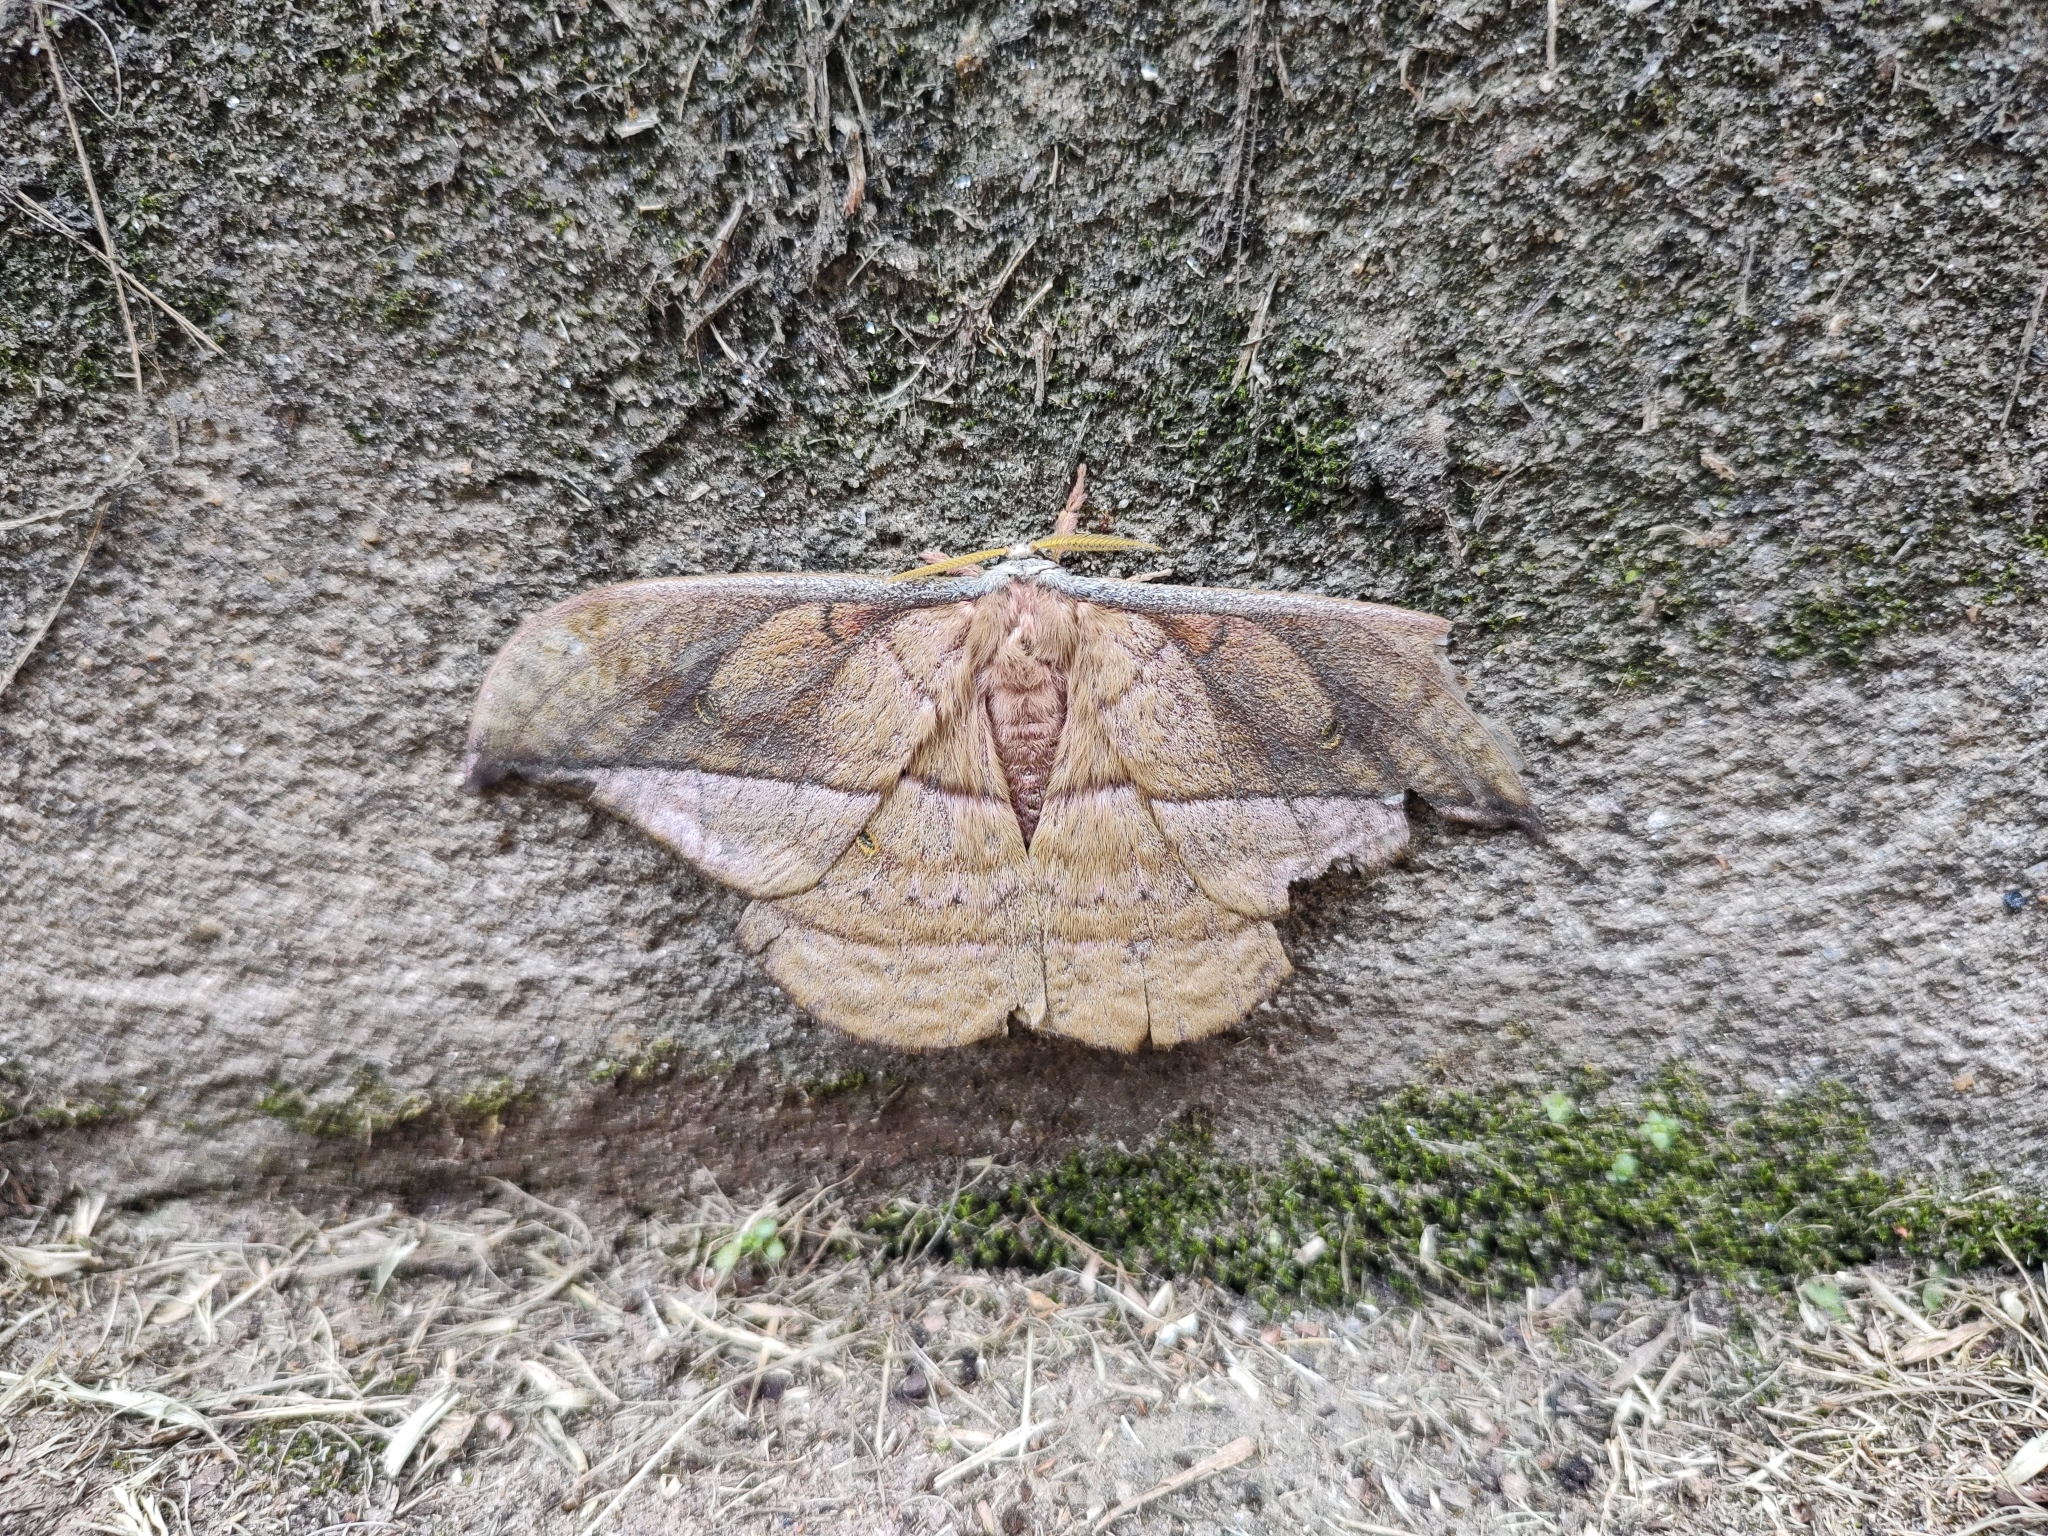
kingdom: Animalia
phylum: Arthropoda
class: Insecta
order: Lepidoptera
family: Saturniidae
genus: Copaxa
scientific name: Copaxa decrescens
